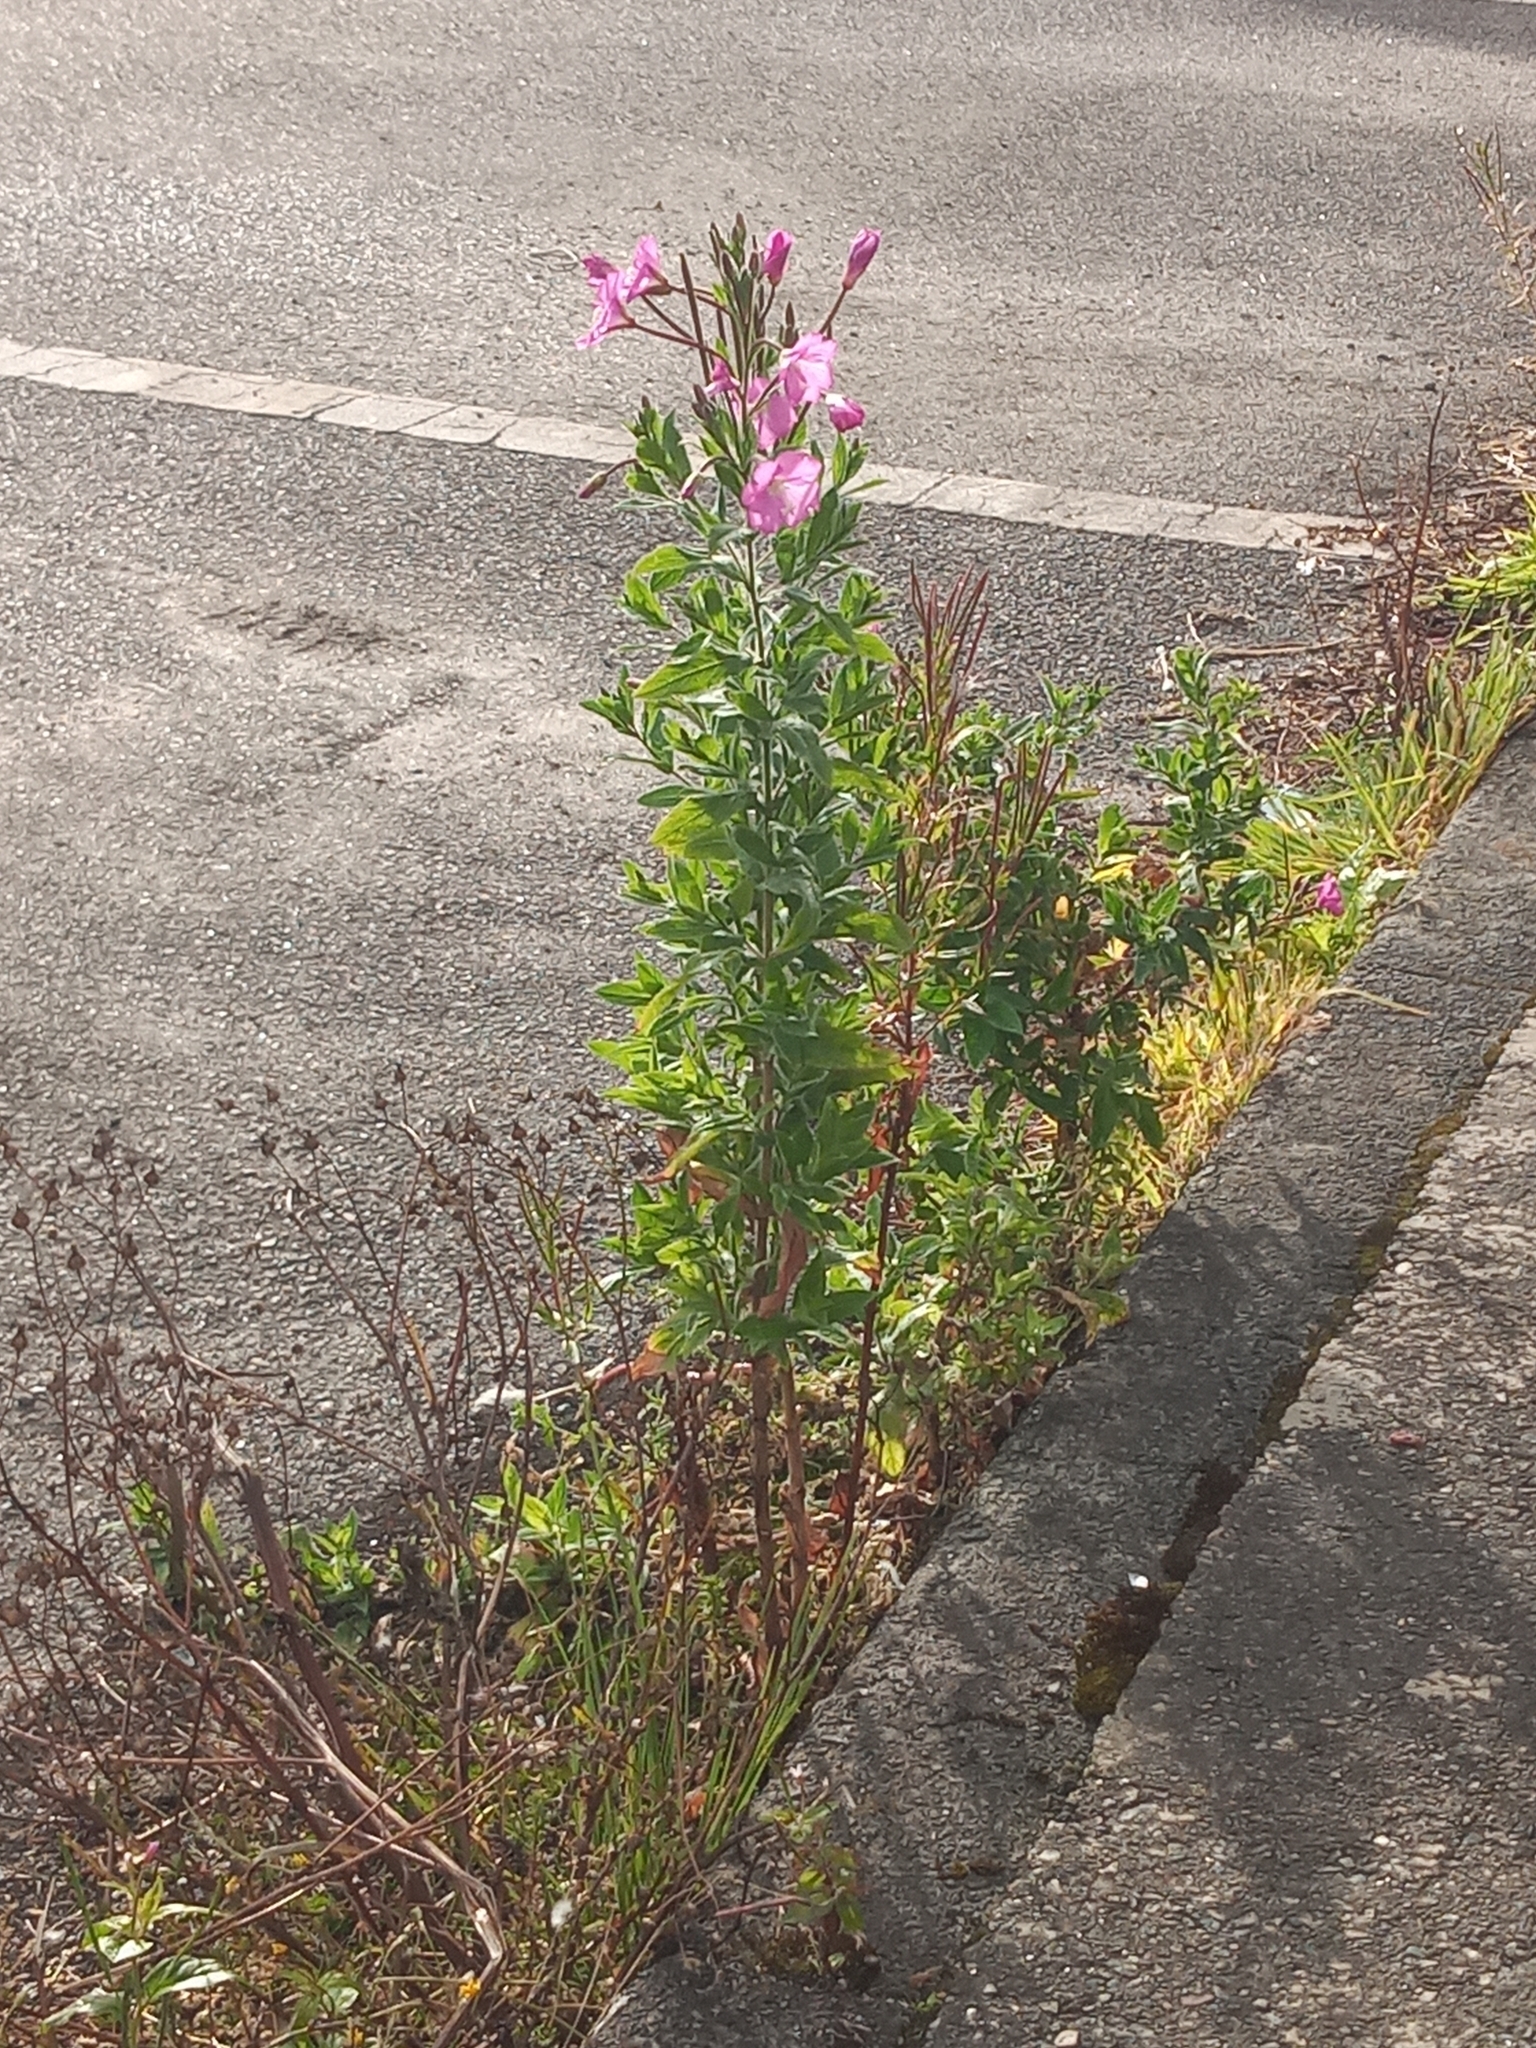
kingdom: Plantae
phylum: Tracheophyta
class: Magnoliopsida
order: Myrtales
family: Onagraceae
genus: Epilobium
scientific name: Epilobium hirsutum
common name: Great willowherb
